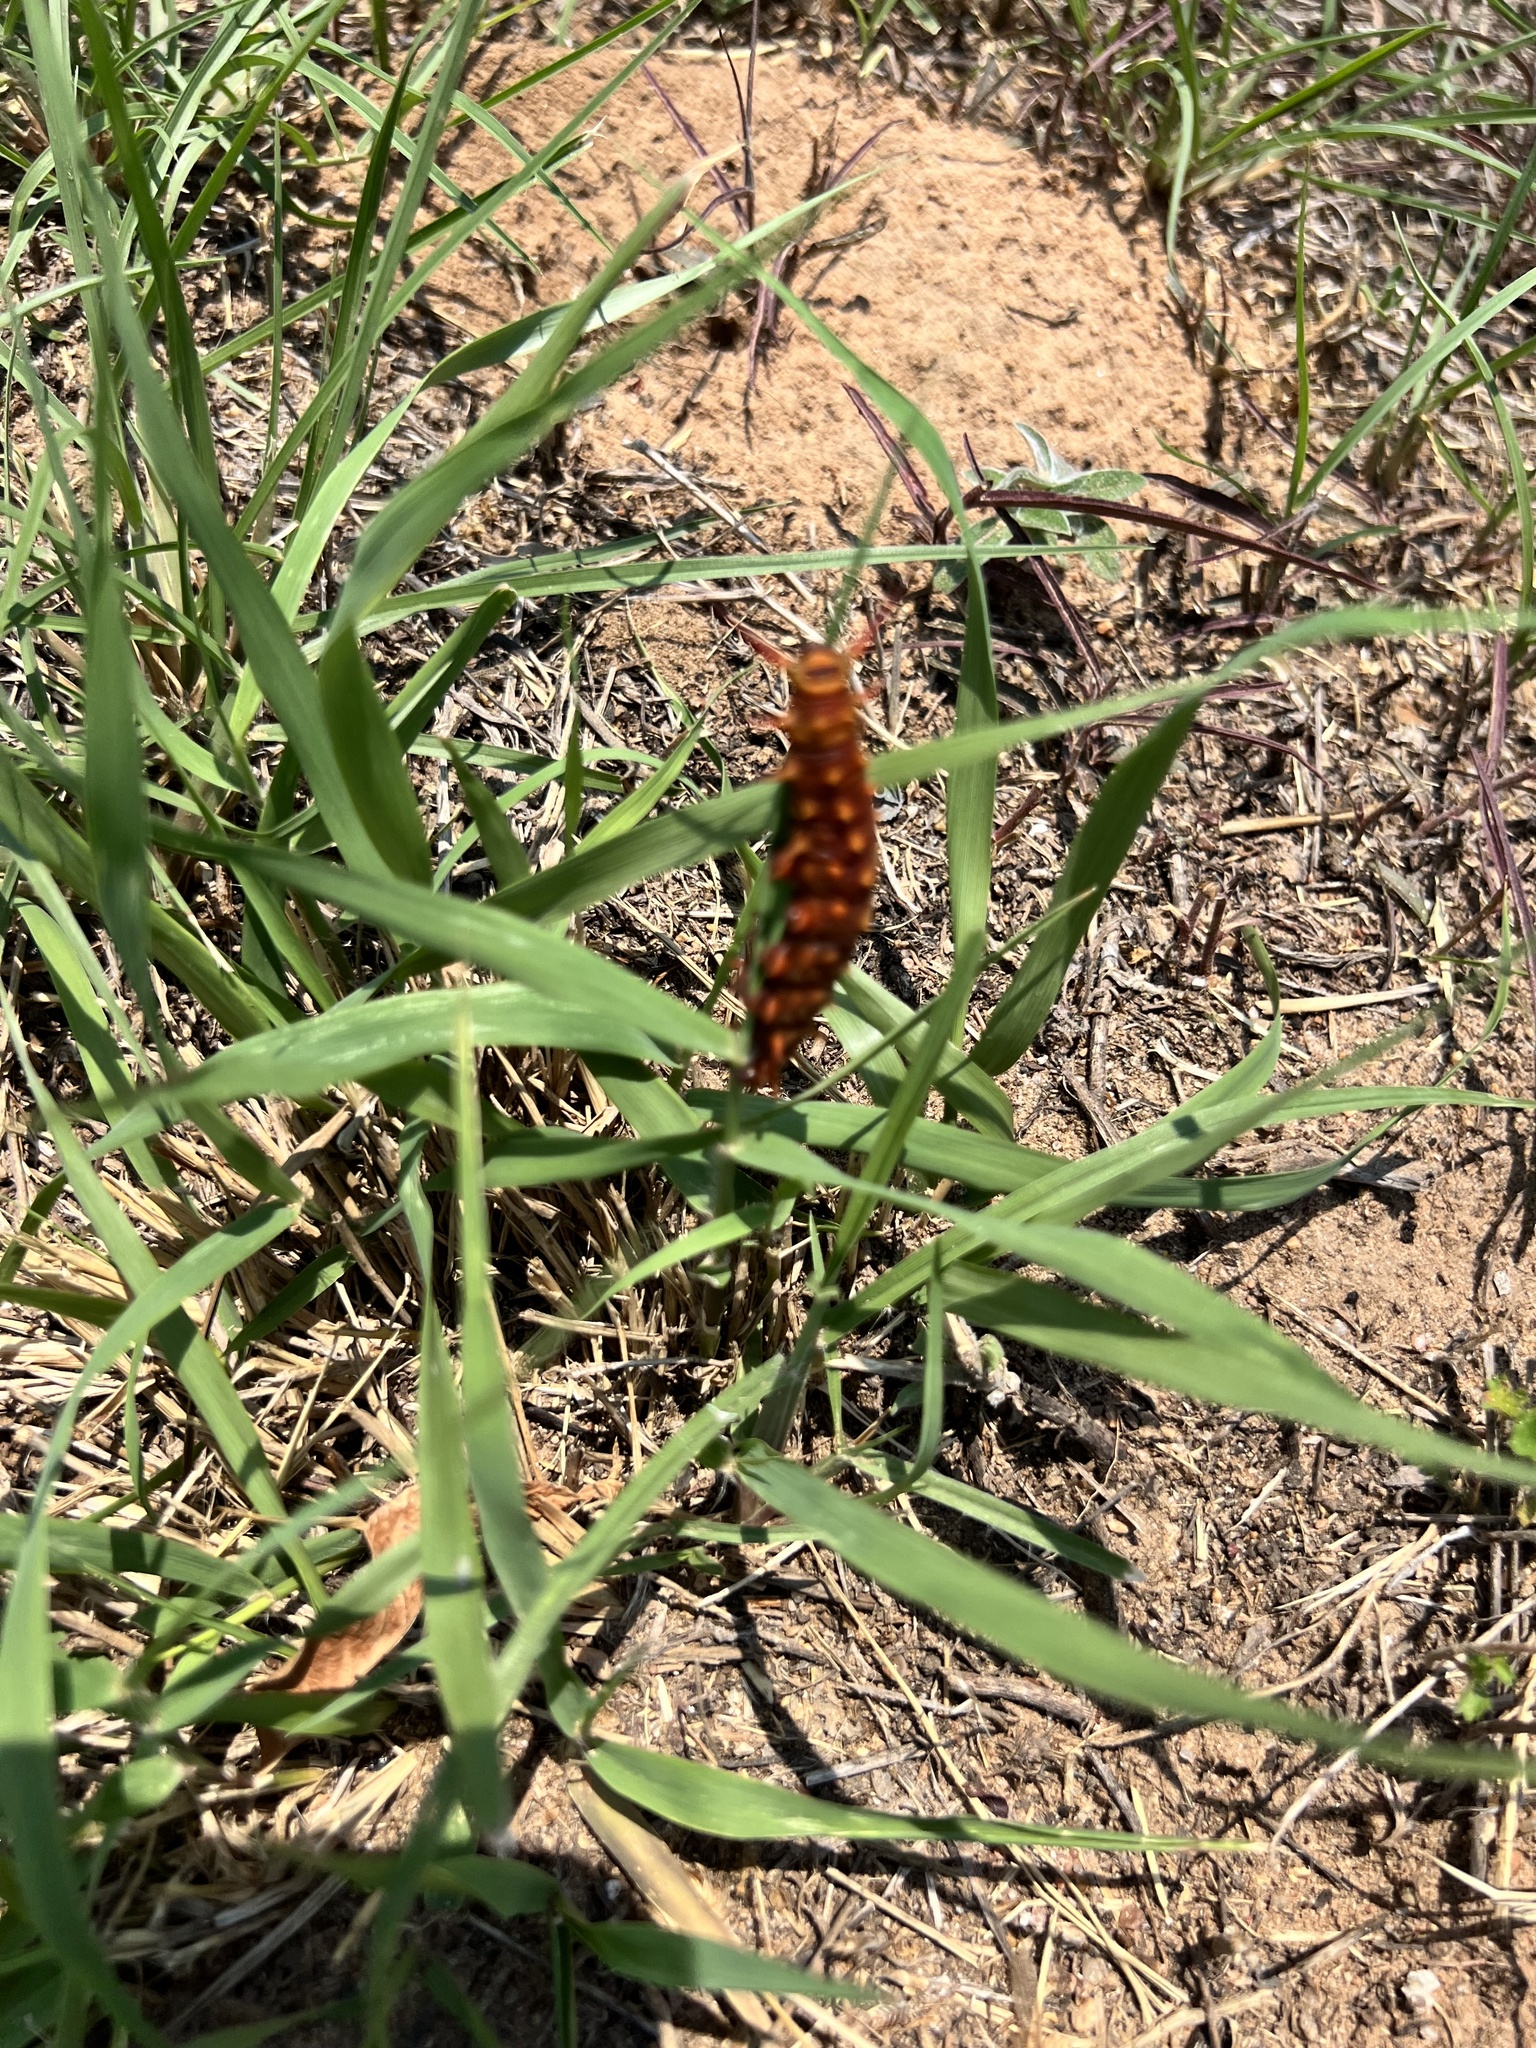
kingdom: Plantae
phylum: Tracheophyta
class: Magnoliopsida
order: Piperales
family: Aristolochiaceae
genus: Aristolochia
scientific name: Aristolochia erecta
